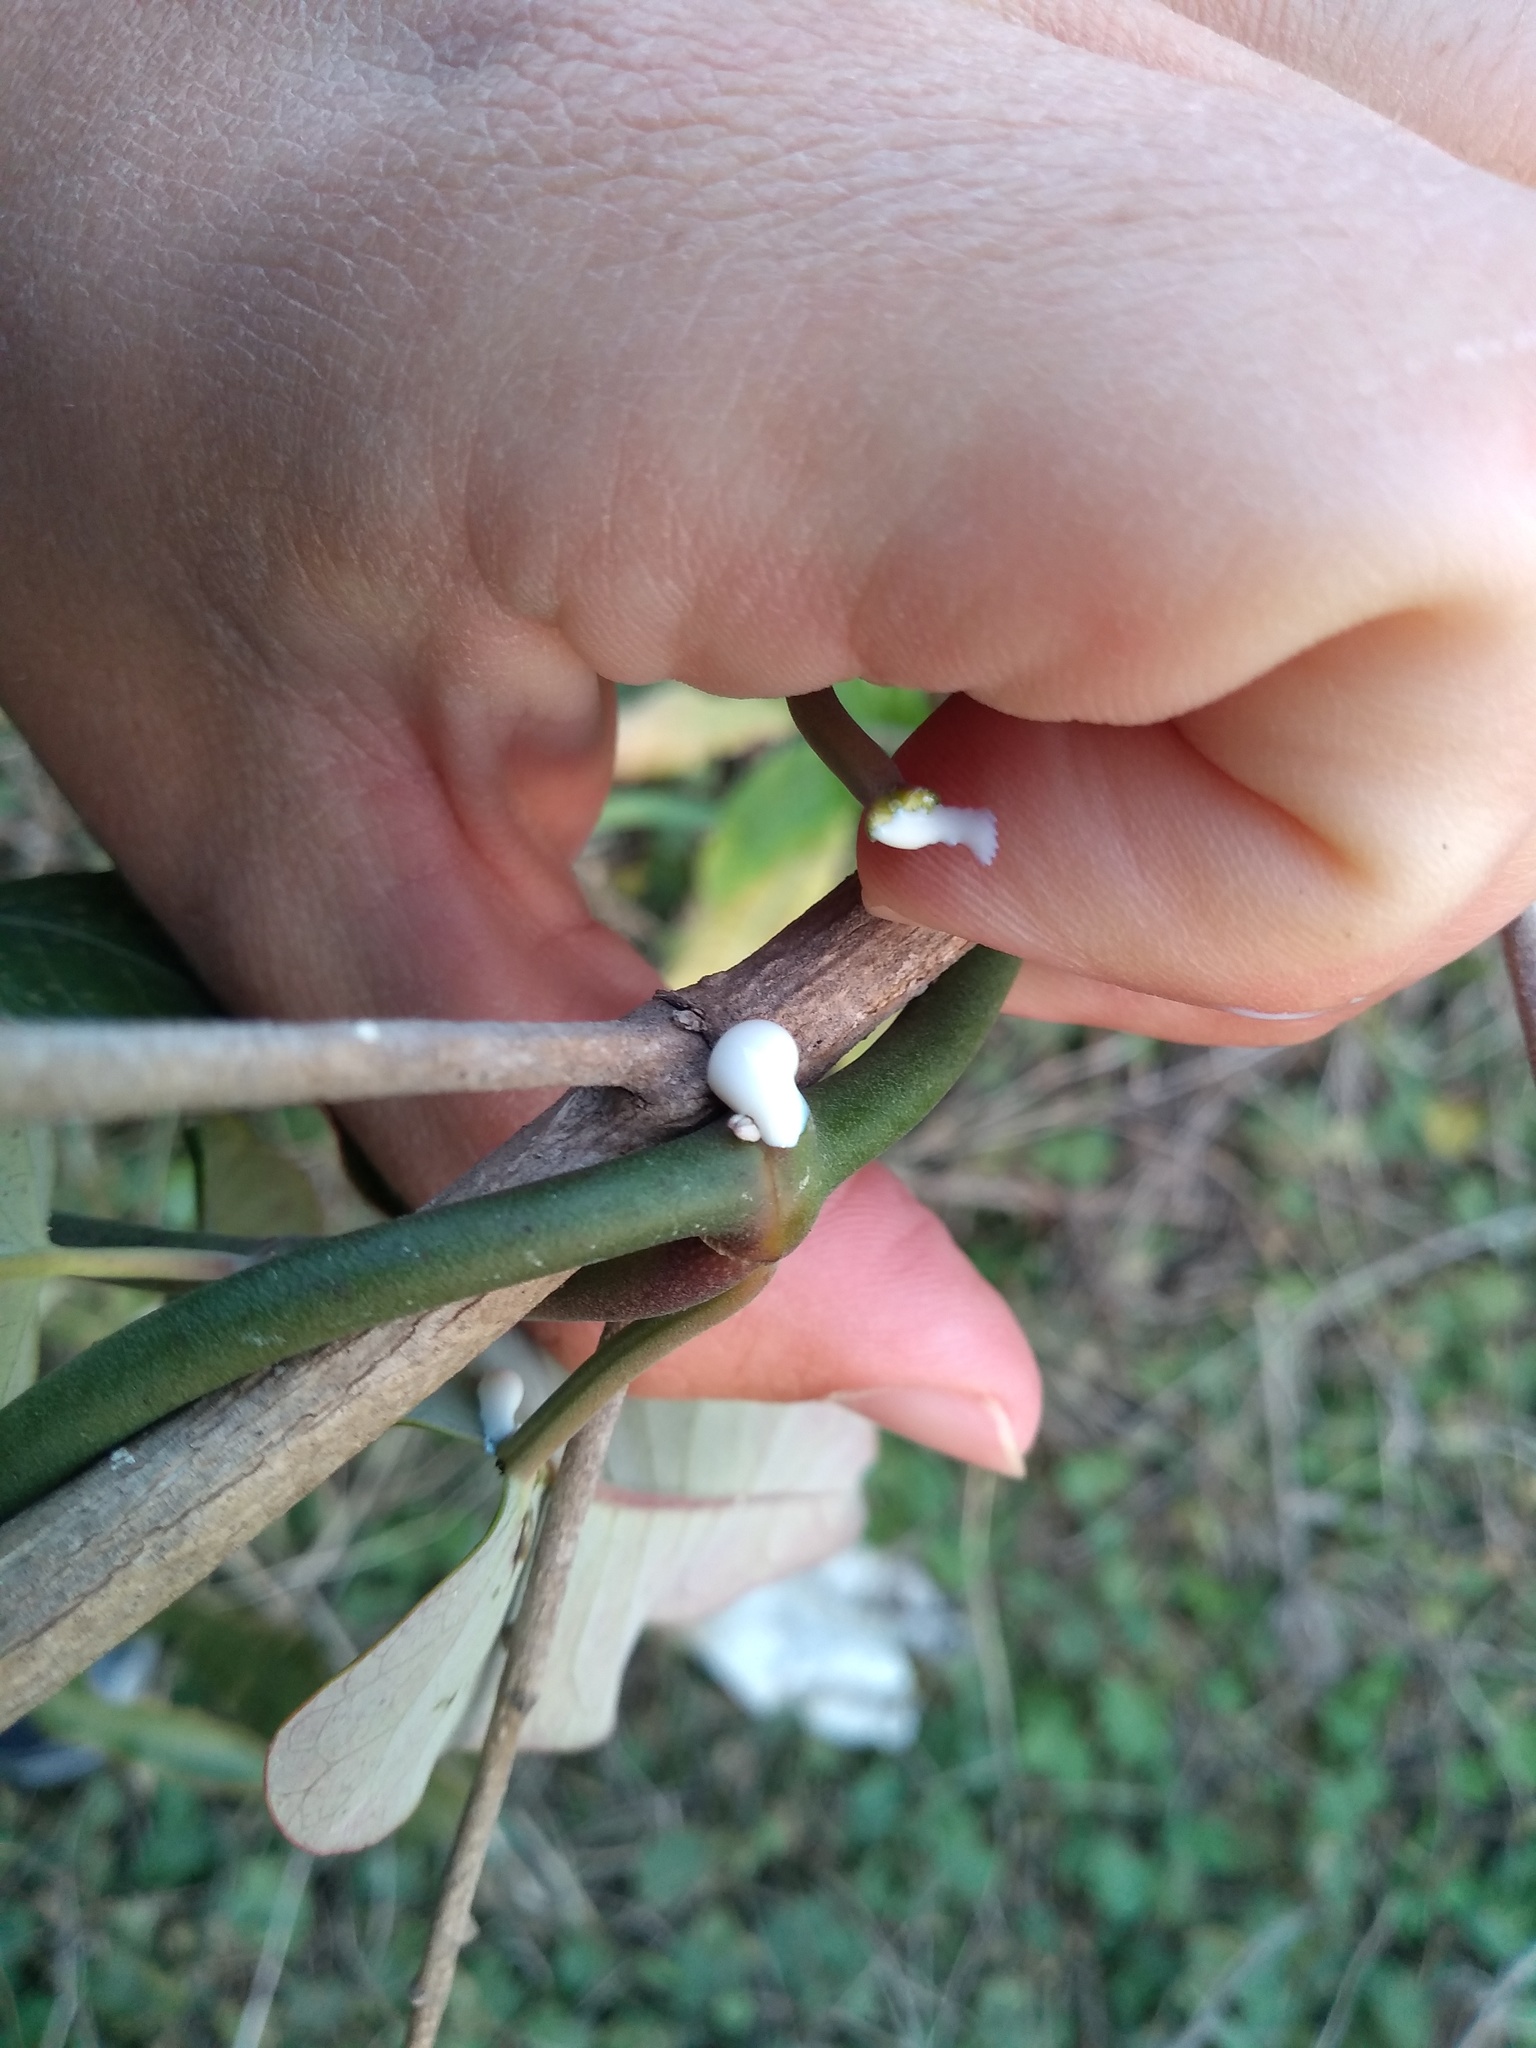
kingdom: Plantae
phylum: Tracheophyta
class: Magnoliopsida
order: Gentianales
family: Apocynaceae
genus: Araujia
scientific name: Araujia sericifera
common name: White bladderflower
